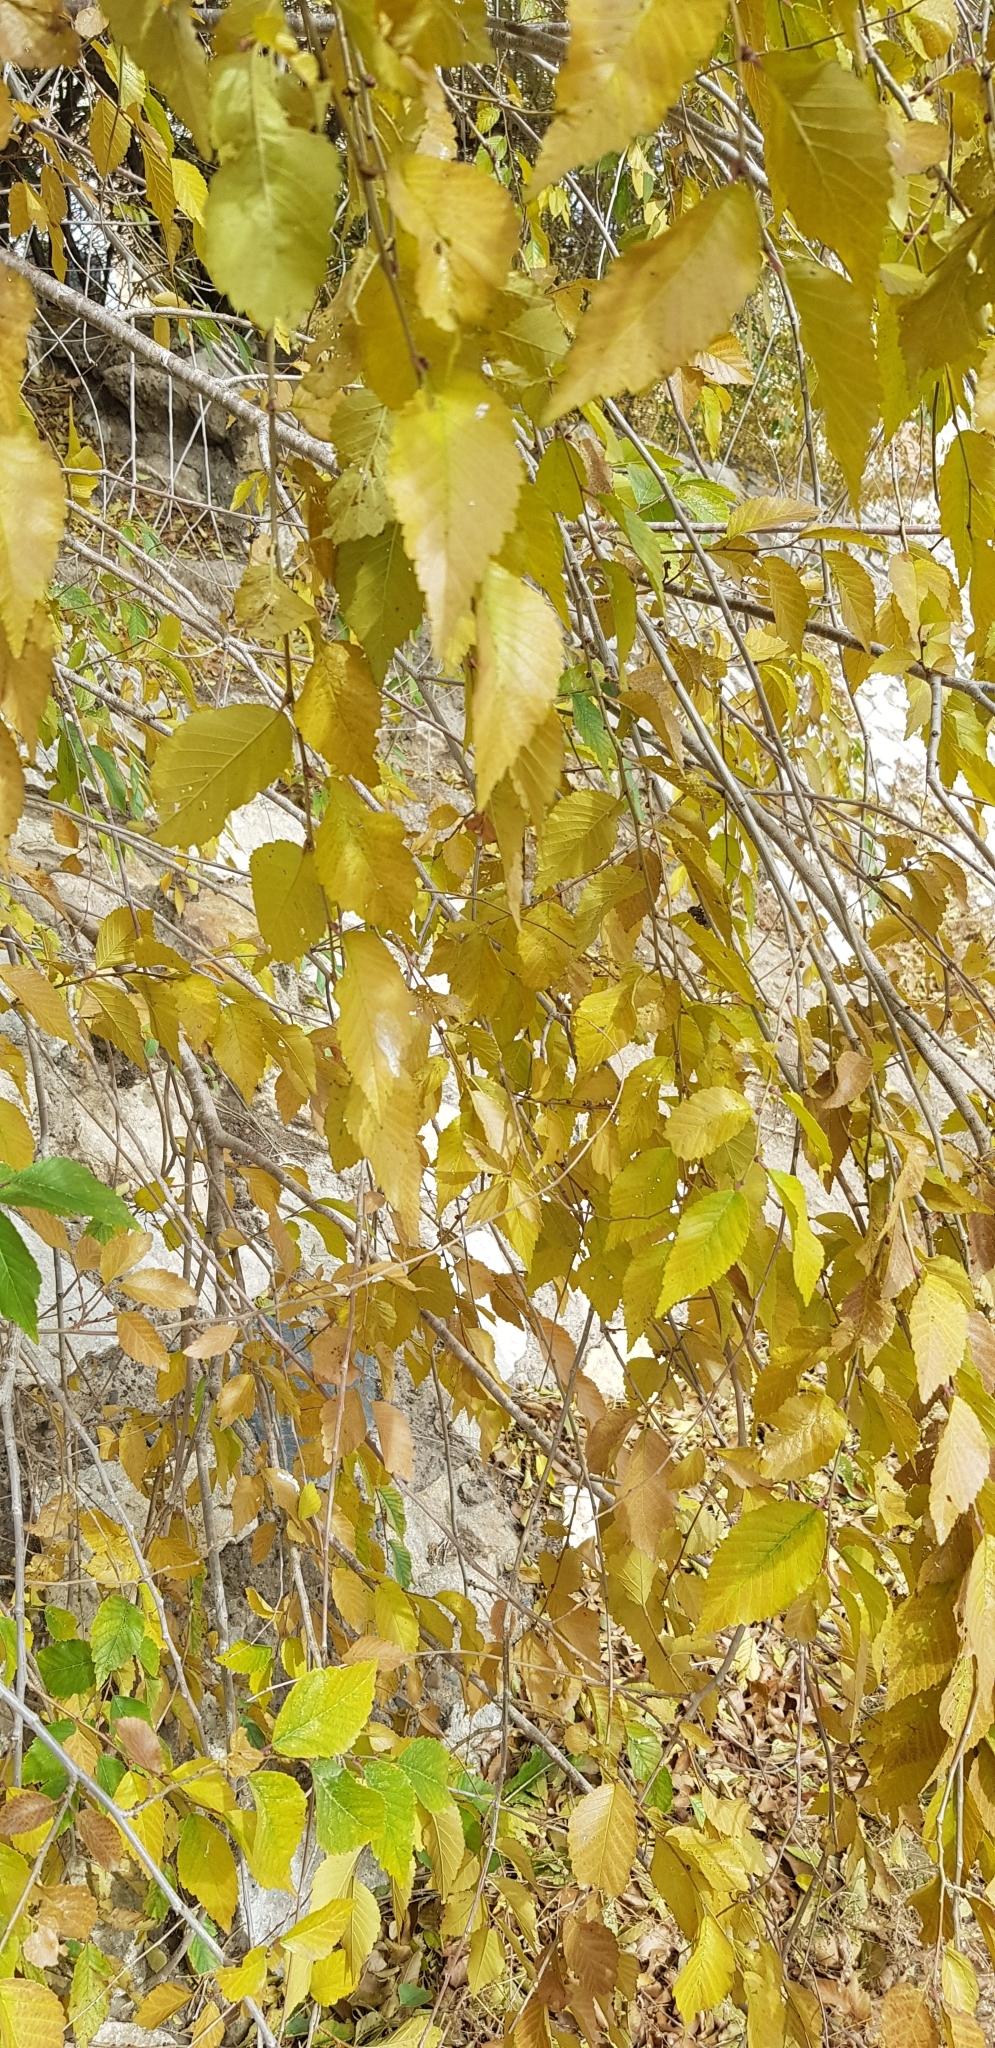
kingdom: Plantae
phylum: Tracheophyta
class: Magnoliopsida
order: Rosales
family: Ulmaceae
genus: Ulmus
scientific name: Ulmus pumila
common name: Siberian elm
